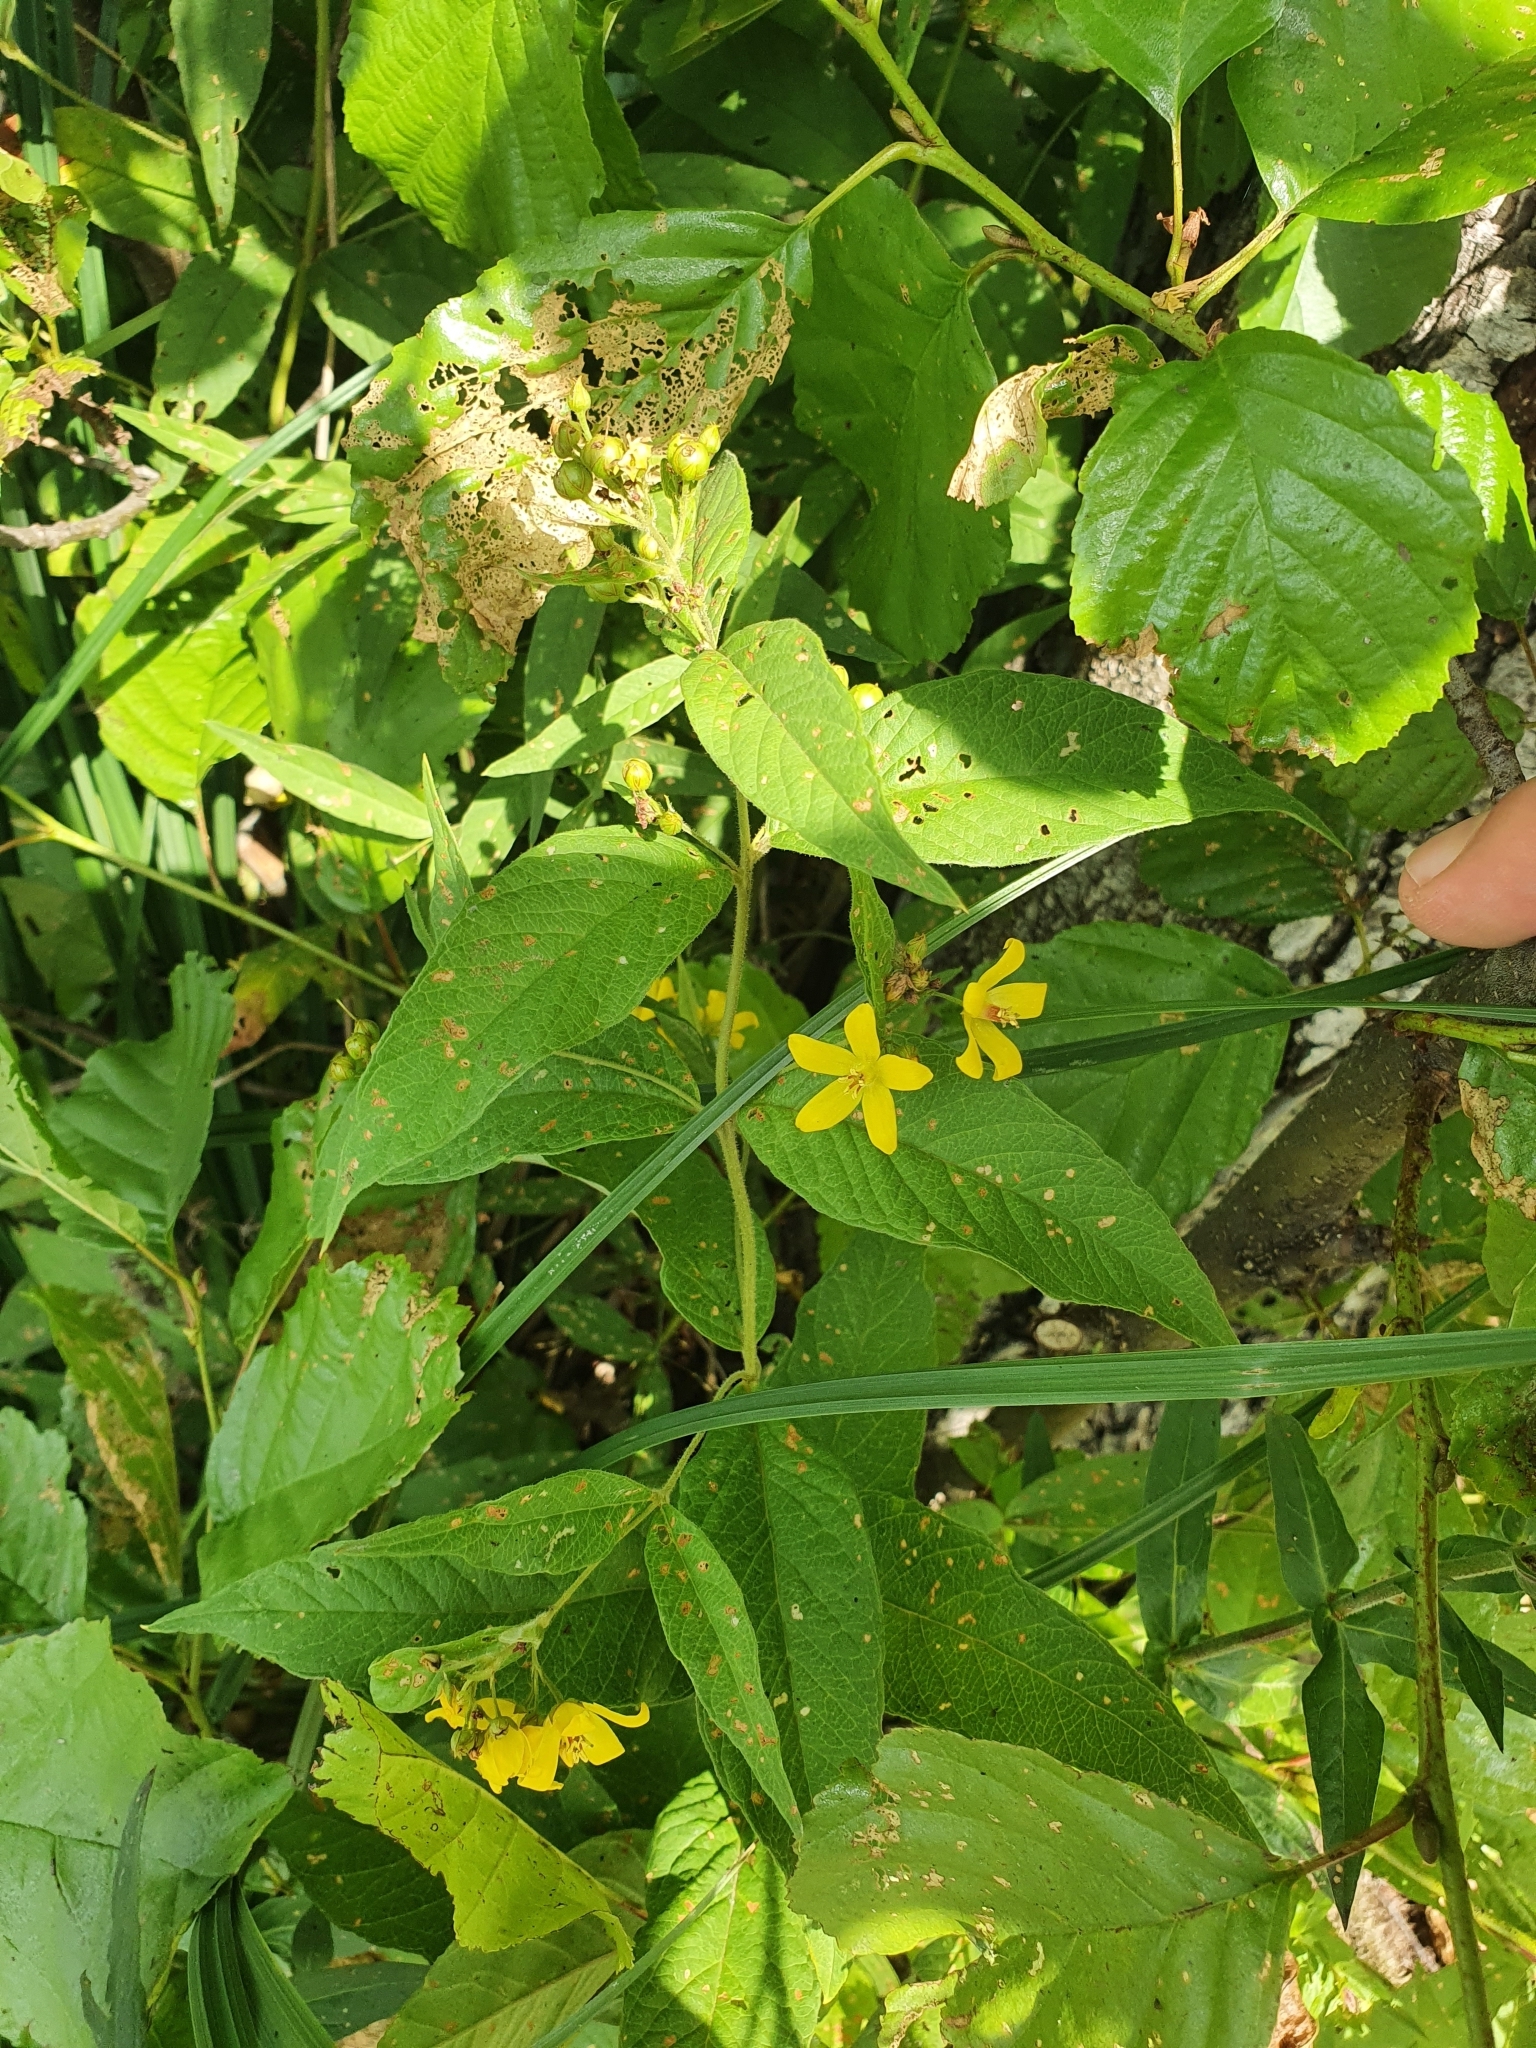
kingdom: Plantae
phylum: Tracheophyta
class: Magnoliopsida
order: Ericales
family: Primulaceae
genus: Lysimachia
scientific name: Lysimachia vulgaris
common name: Yellow loosestrife
